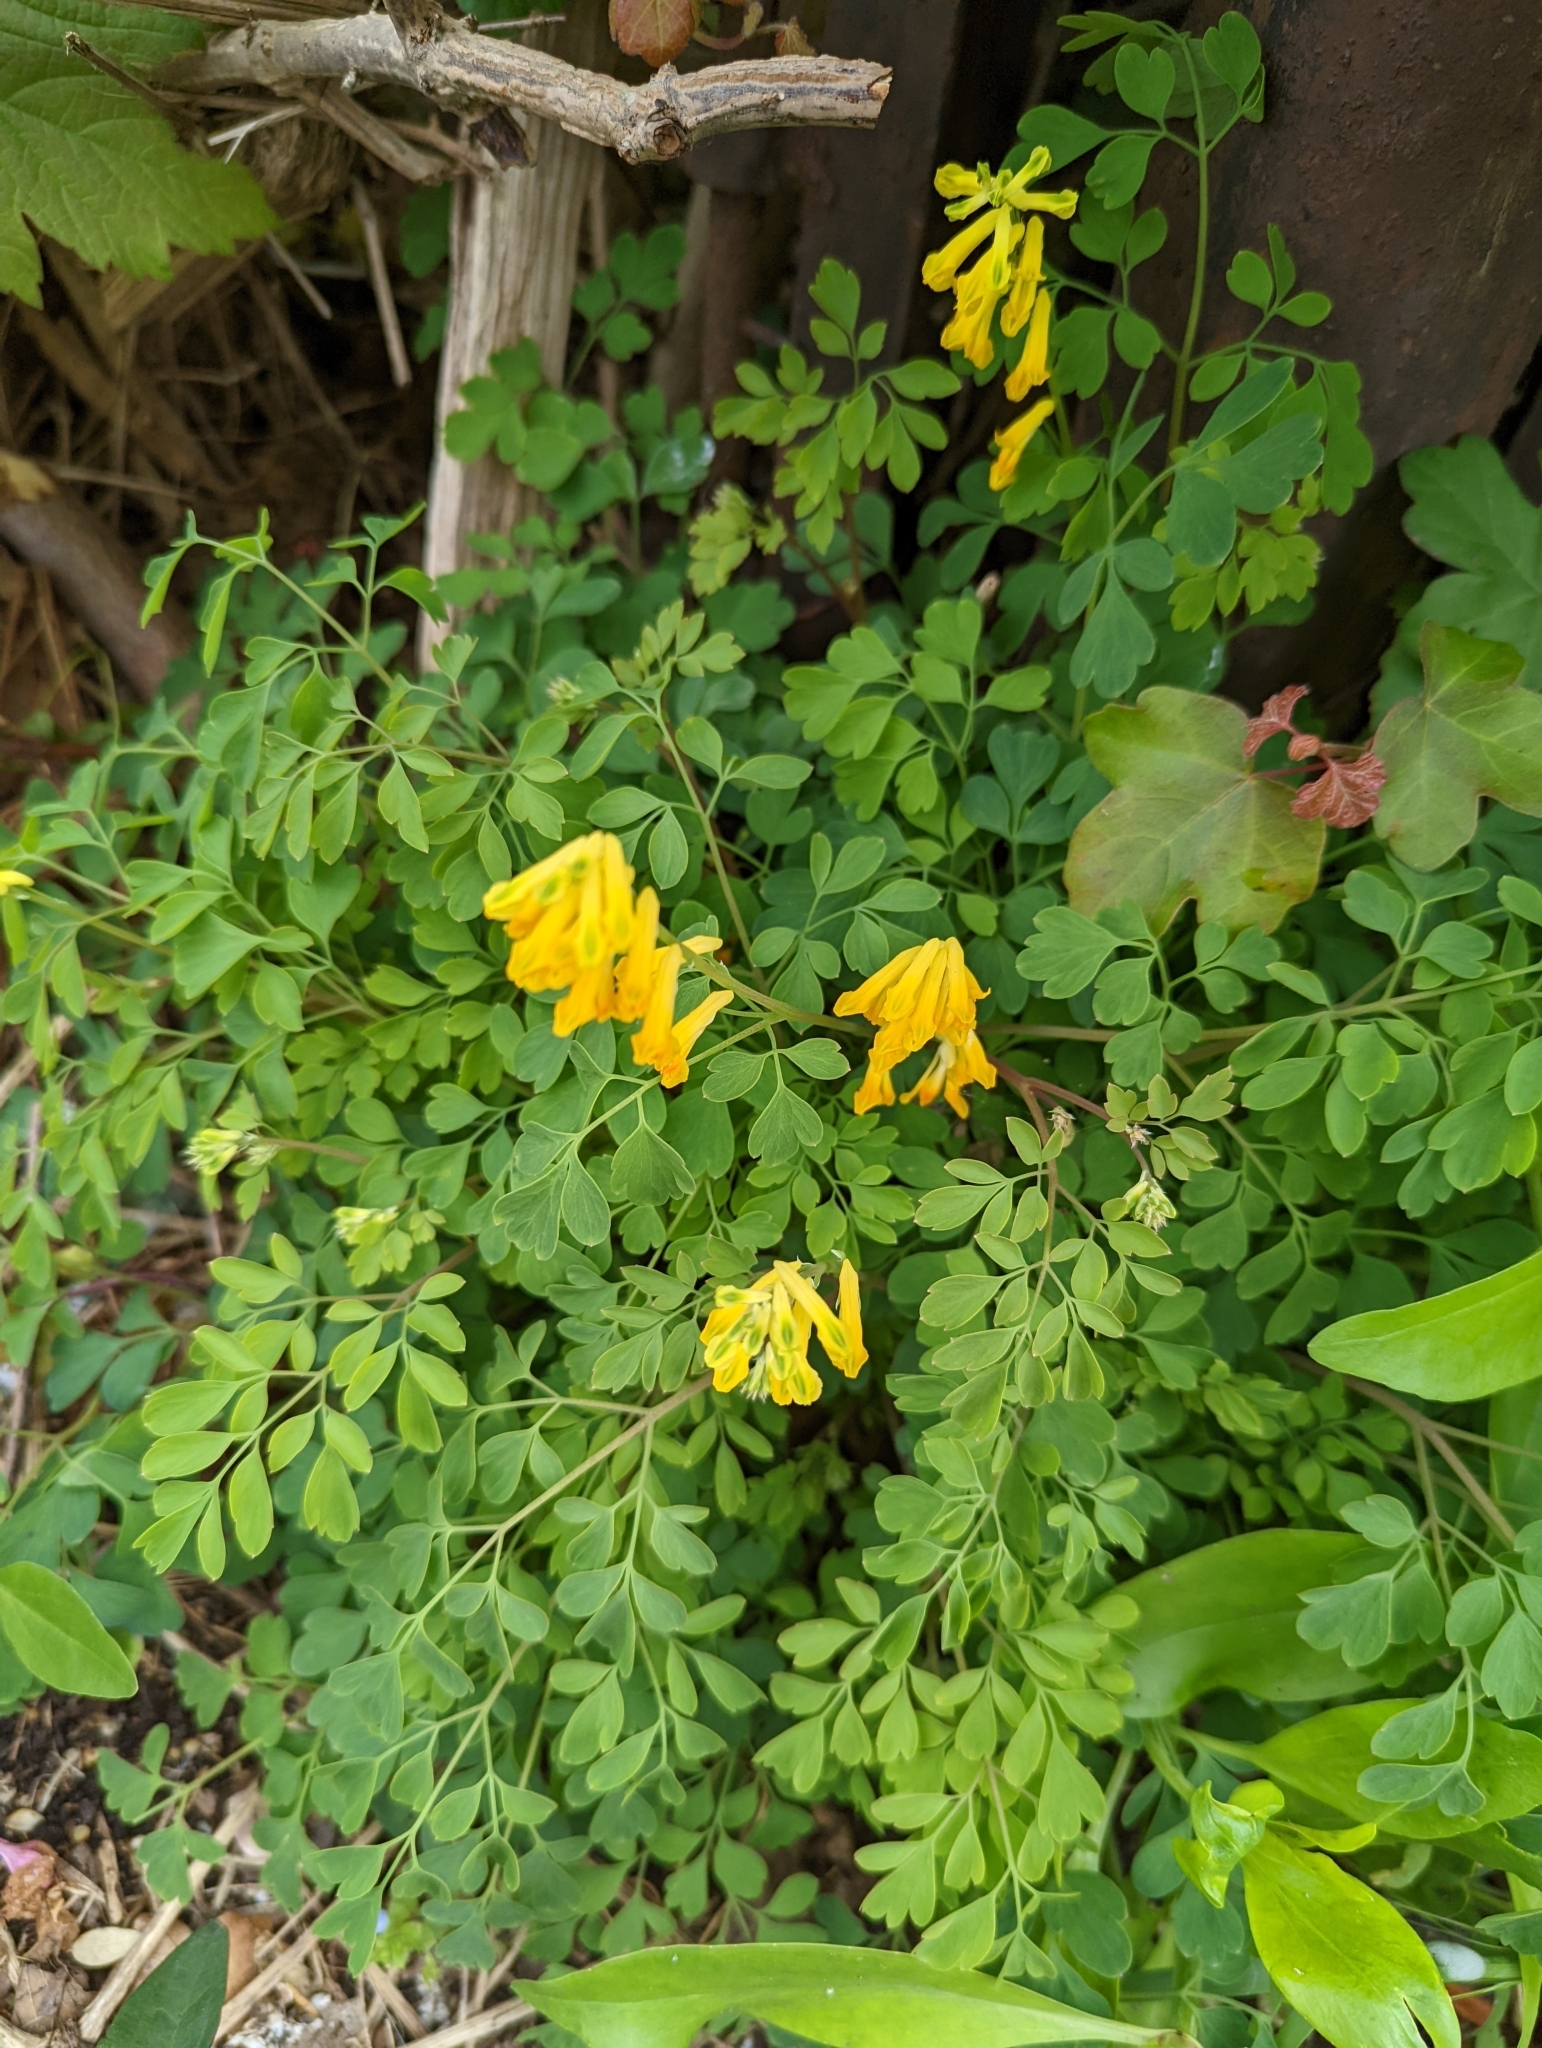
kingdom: Plantae
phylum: Tracheophyta
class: Magnoliopsida
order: Ranunculales
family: Papaveraceae
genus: Pseudofumaria
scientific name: Pseudofumaria lutea
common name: Yellow corydalis
